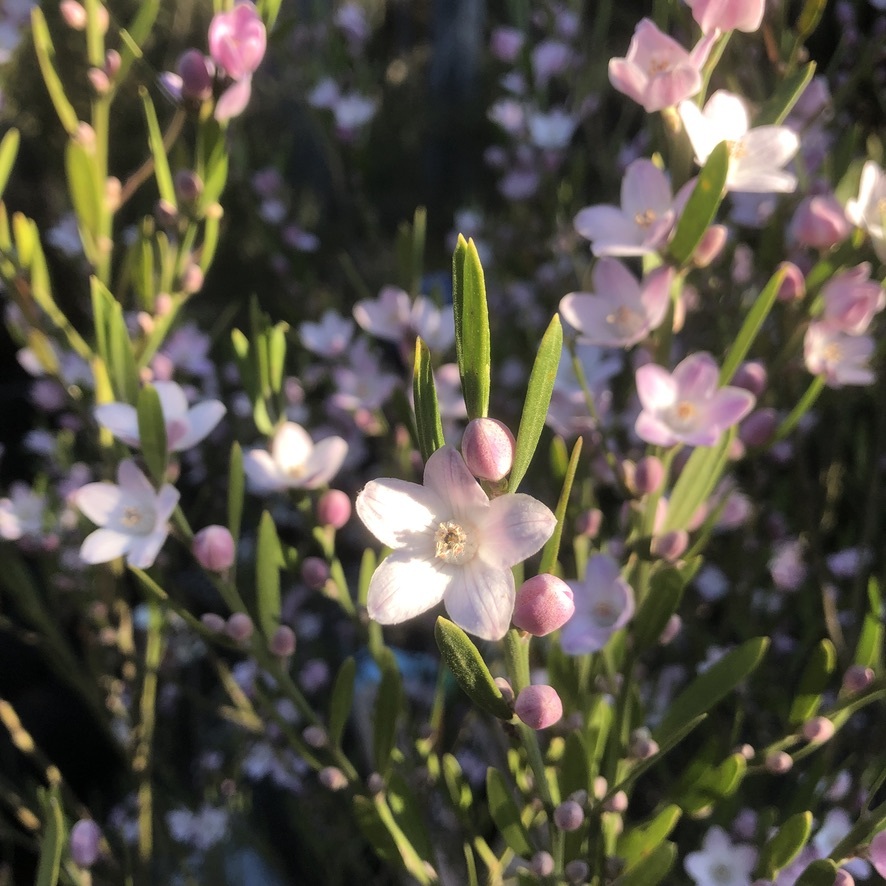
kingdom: Plantae
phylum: Tracheophyta
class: Magnoliopsida
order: Sapindales
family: Rutaceae
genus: Eriostemon
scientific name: Eriostemon australasius
